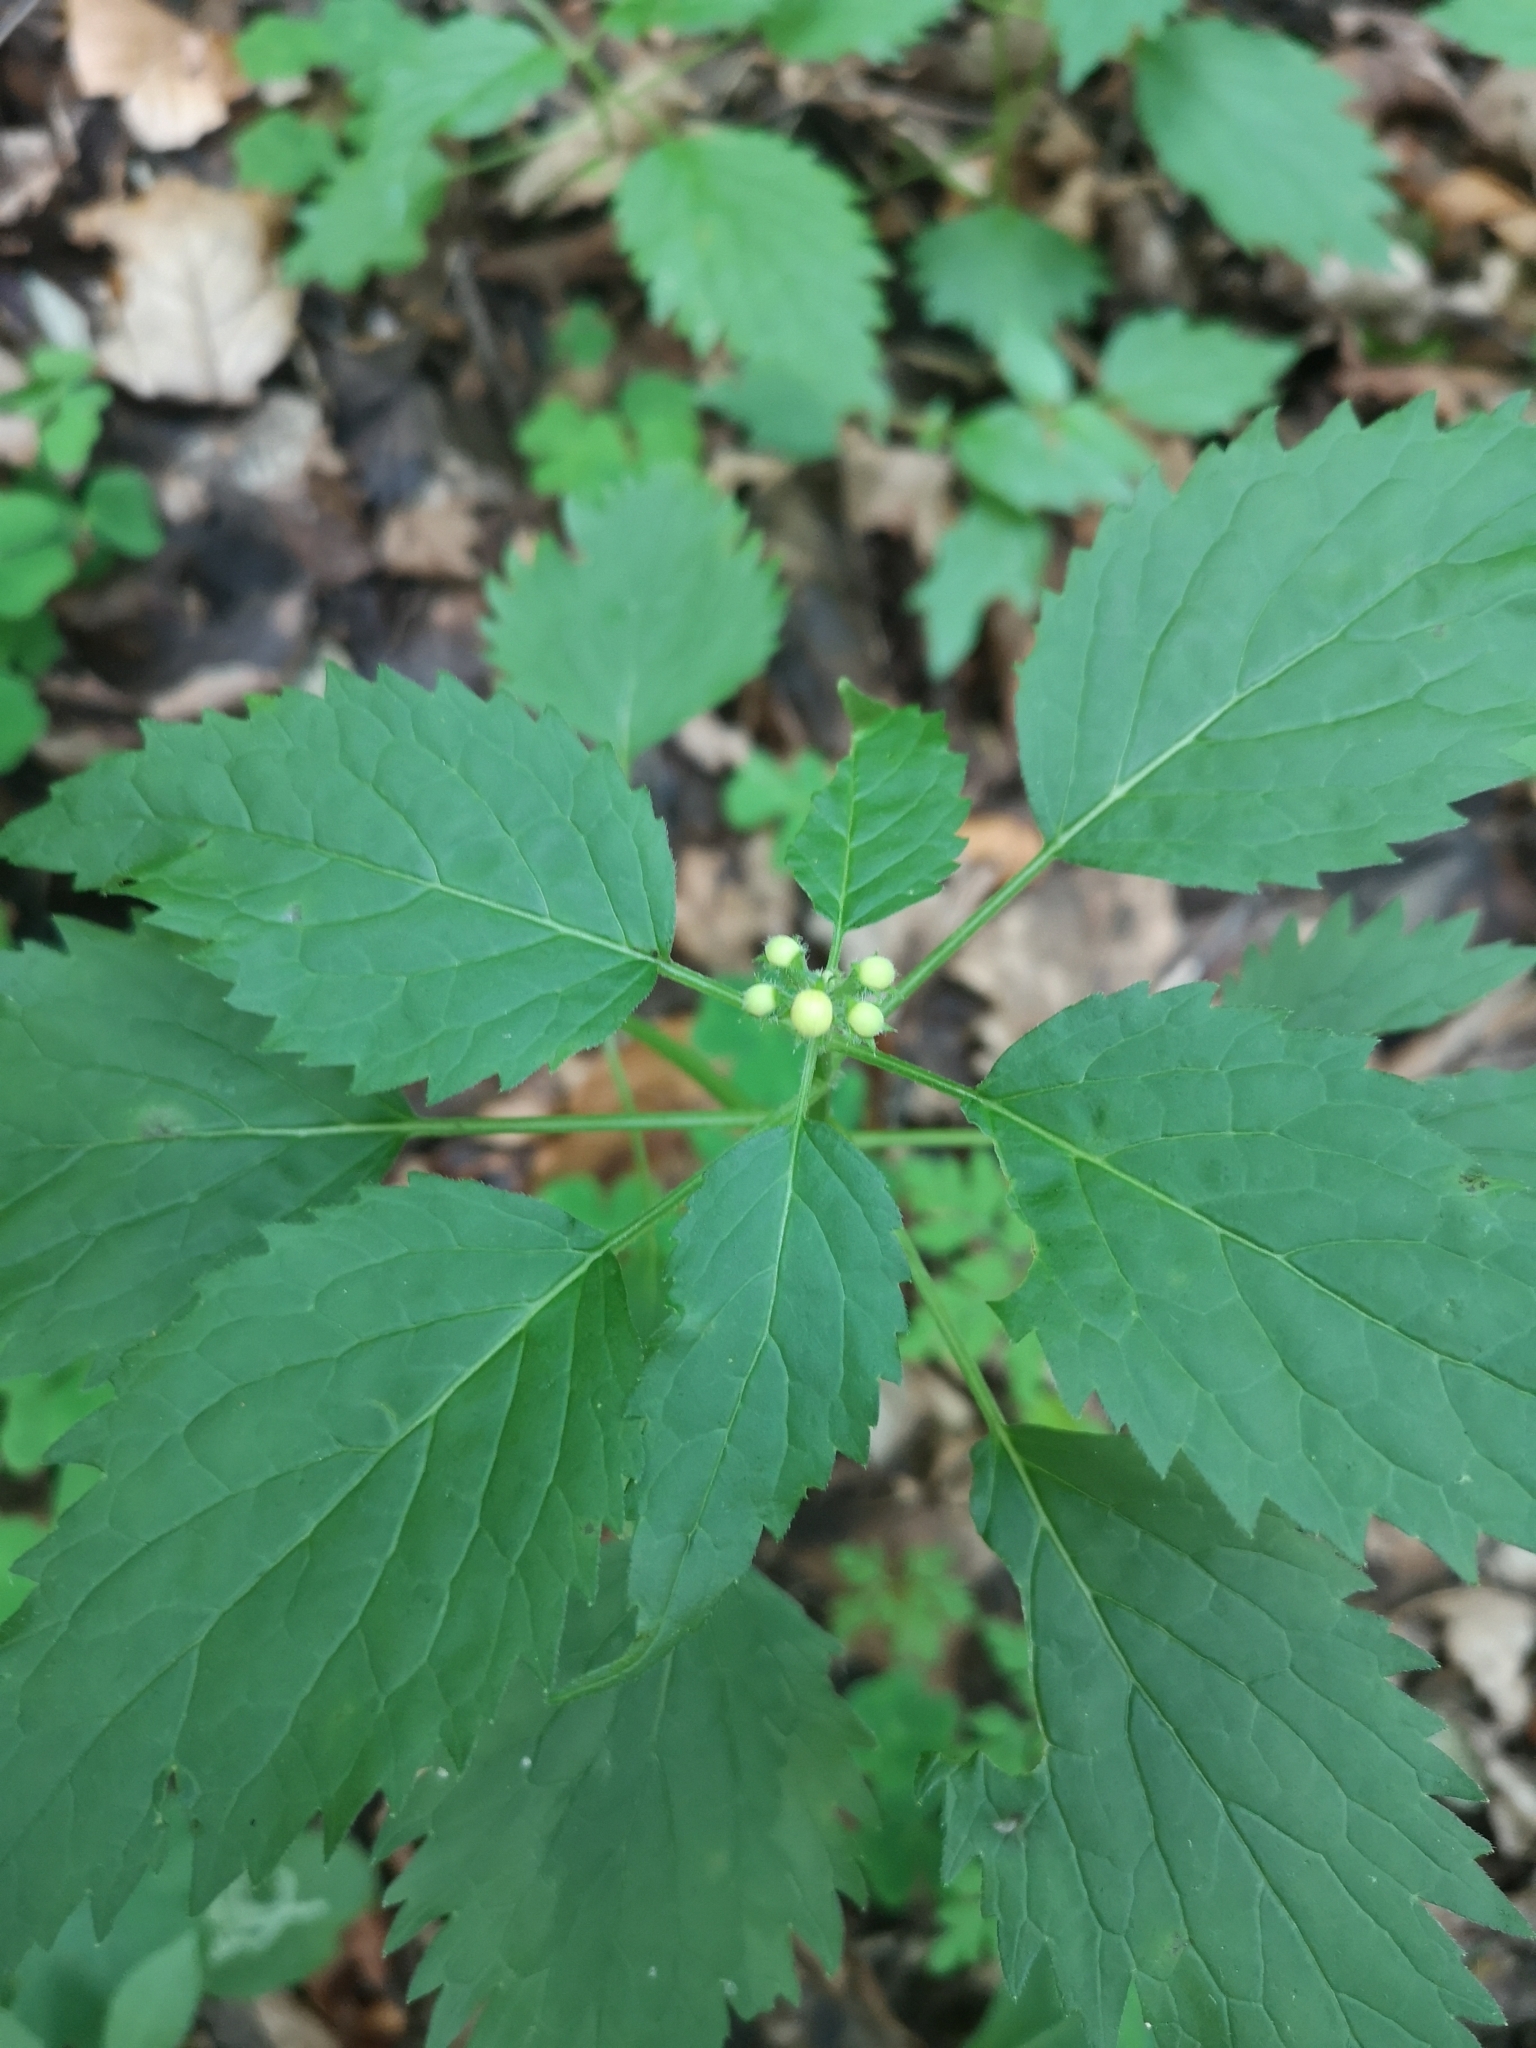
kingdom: Plantae
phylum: Tracheophyta
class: Magnoliopsida
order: Lamiales
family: Lamiaceae
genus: Lamium
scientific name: Lamium galeobdolon
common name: Yellow archangel
